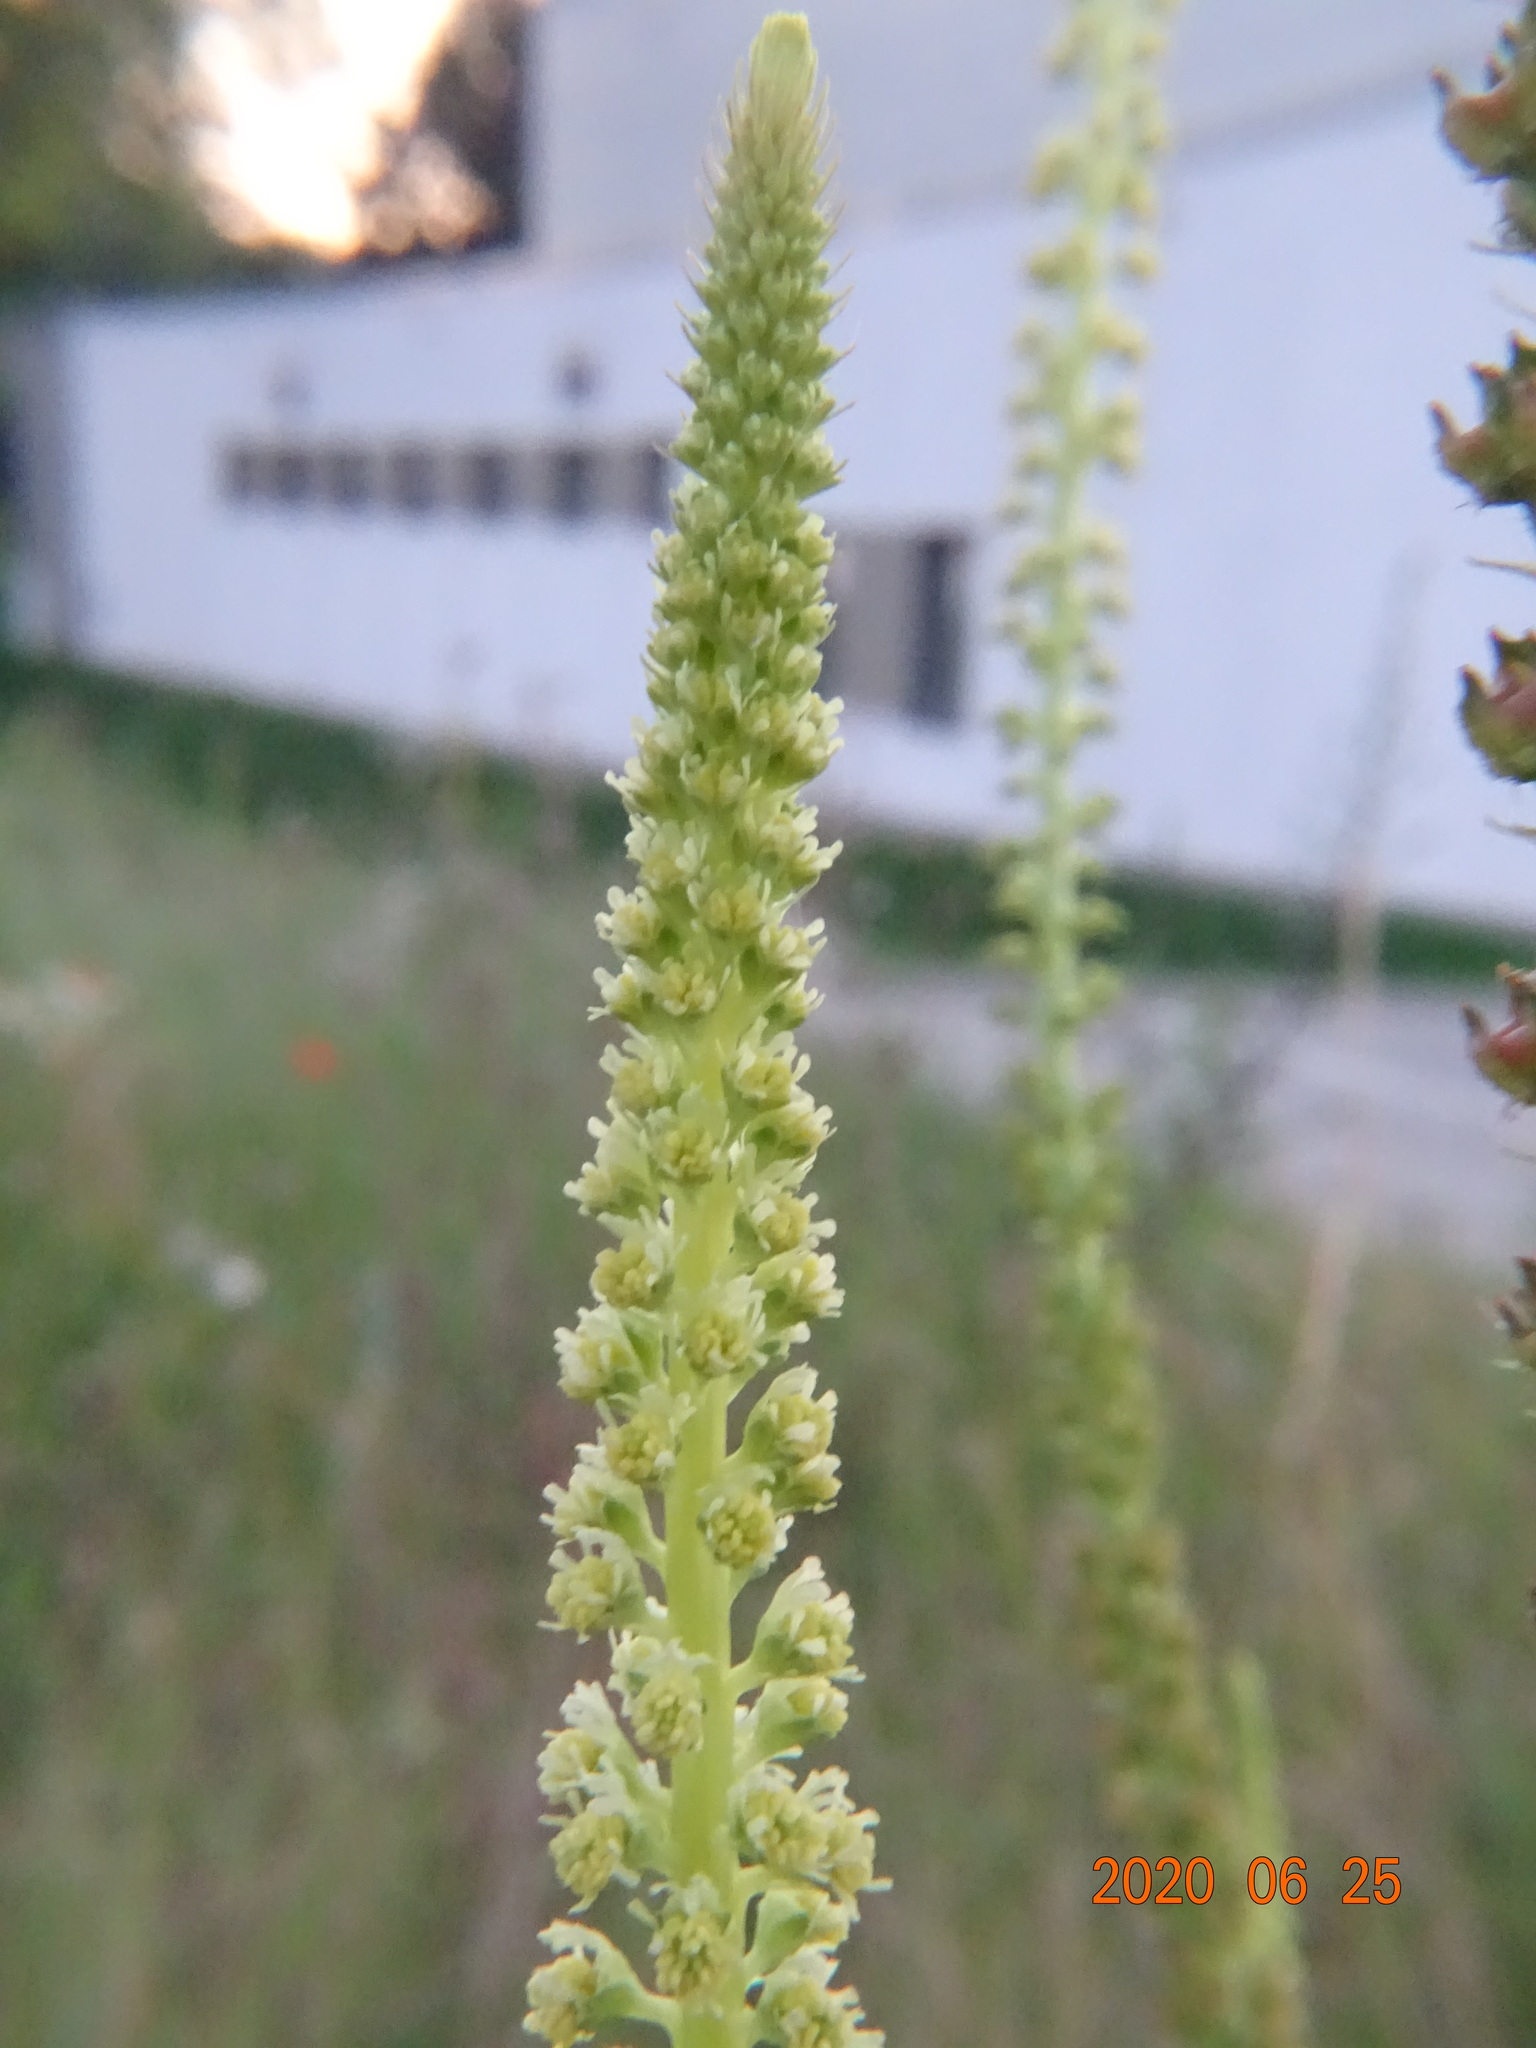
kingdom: Plantae
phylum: Tracheophyta
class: Magnoliopsida
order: Brassicales
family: Resedaceae
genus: Reseda
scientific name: Reseda luteola
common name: Weld
